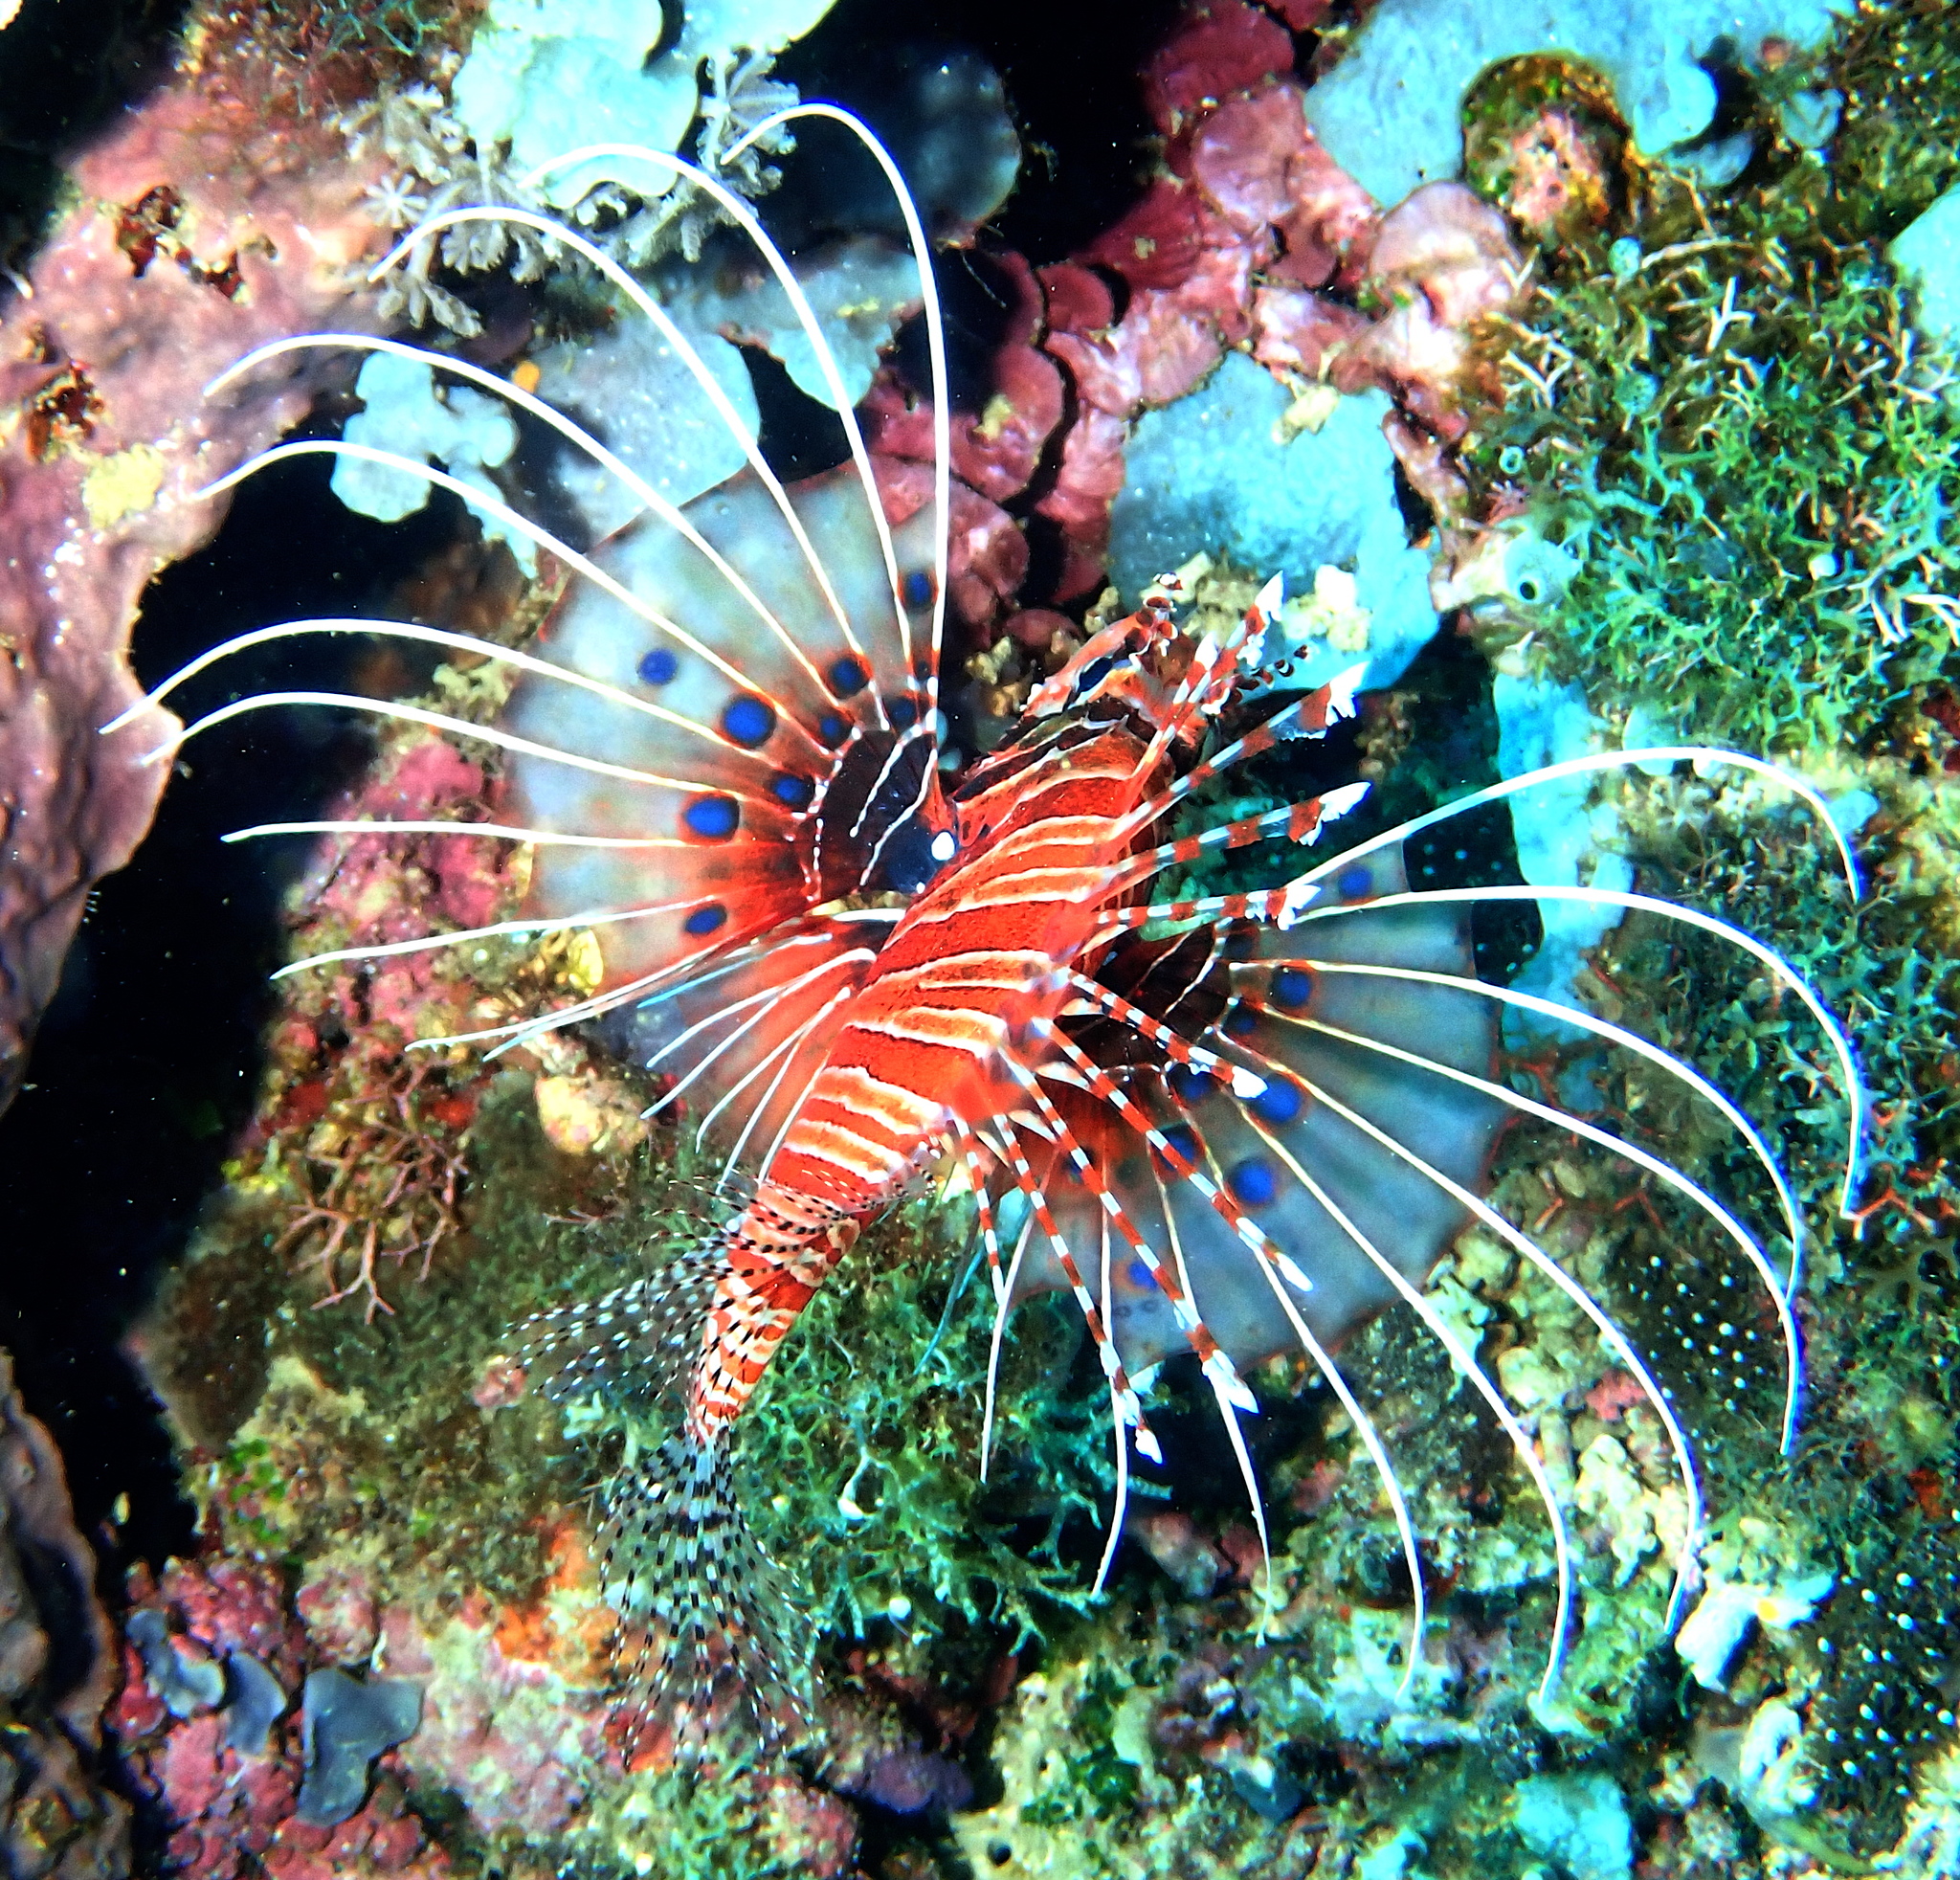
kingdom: Animalia
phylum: Chordata
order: Scorpaeniformes
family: Scorpaenidae
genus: Pterois
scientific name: Pterois antennata
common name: Spotfin lionfish
